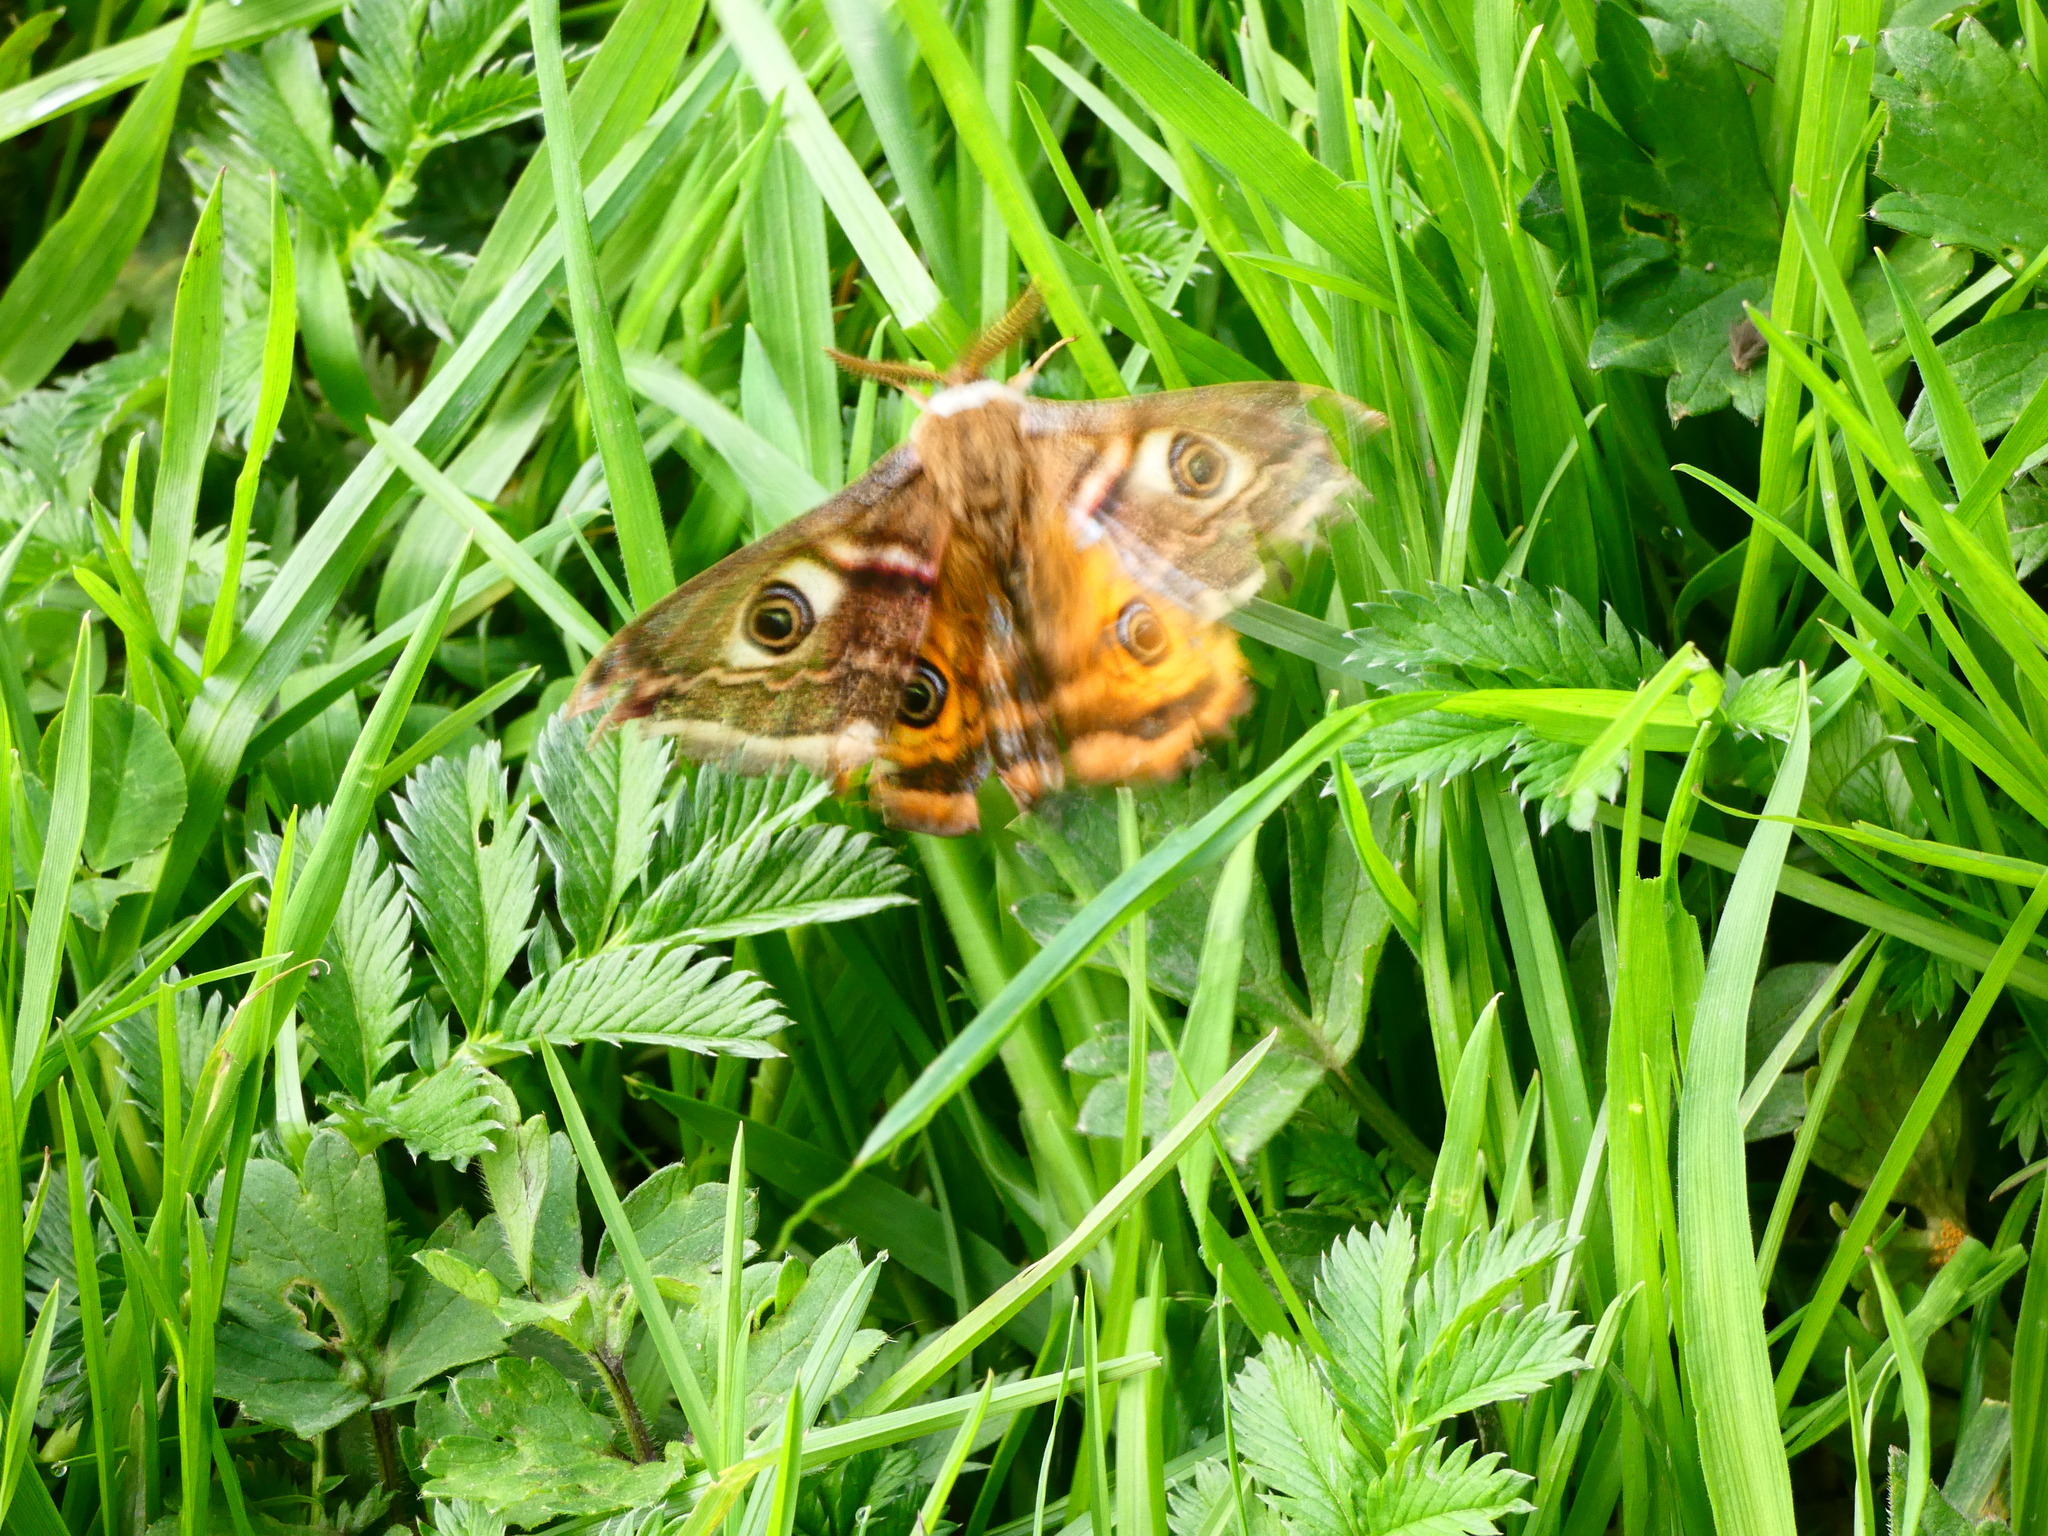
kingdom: Animalia
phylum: Arthropoda
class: Insecta
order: Lepidoptera
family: Saturniidae
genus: Saturnia
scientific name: Saturnia pavonia
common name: Emperor moth
